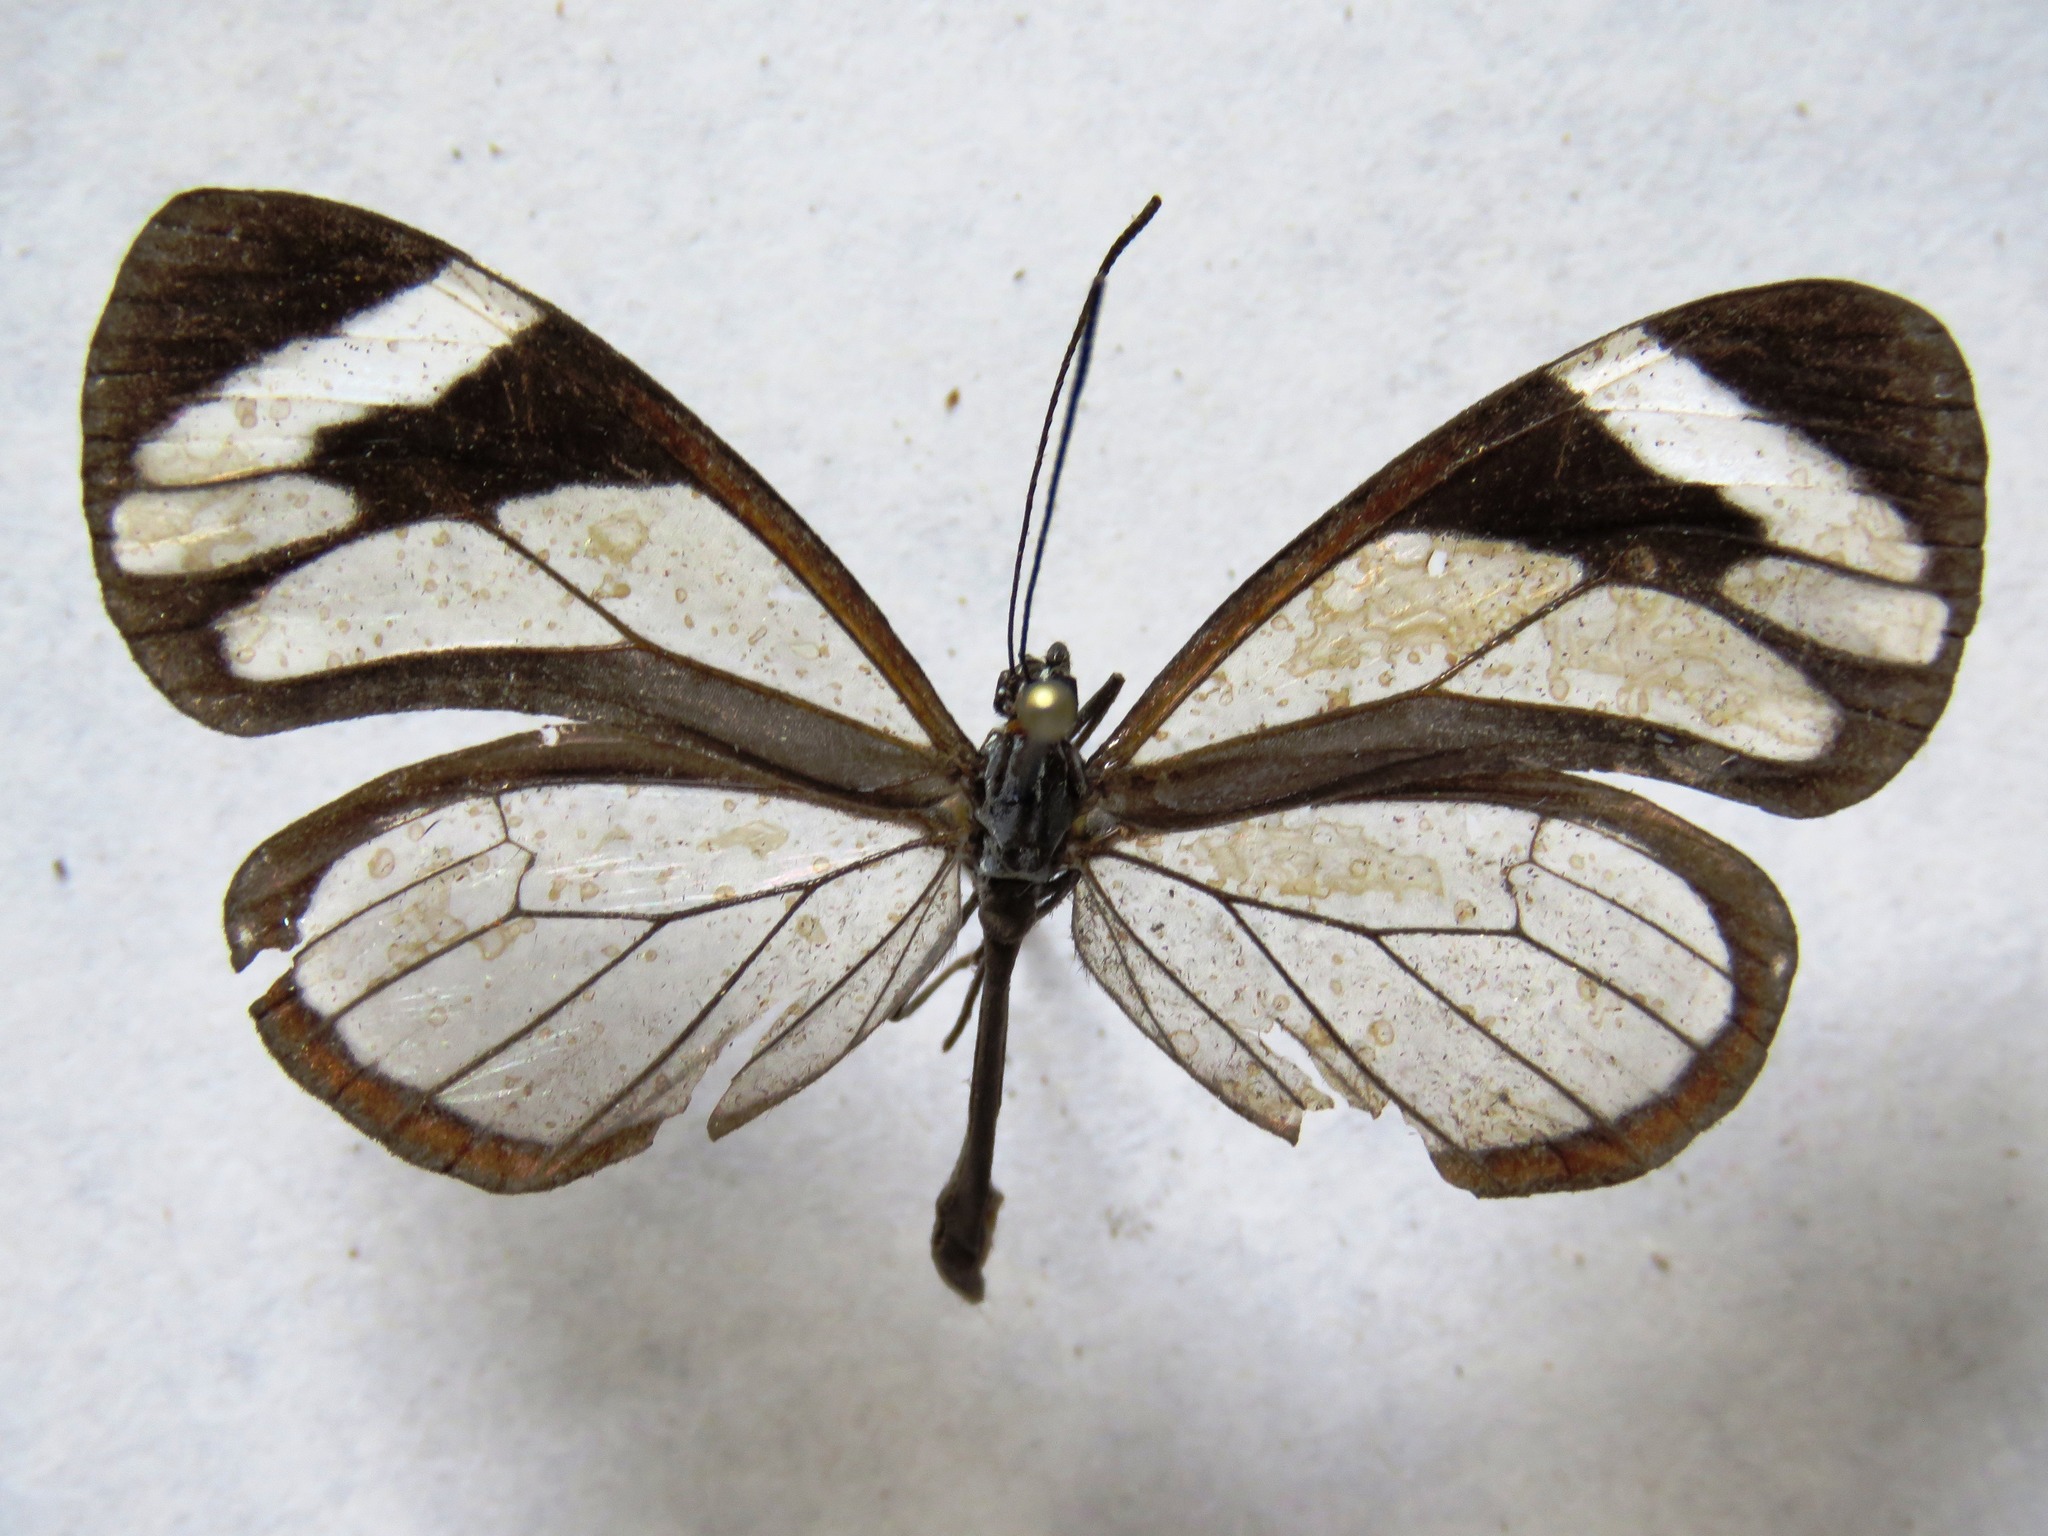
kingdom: Animalia
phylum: Arthropoda
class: Insecta
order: Lepidoptera
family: Nymphalidae
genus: Ithomia
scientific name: Ithomia patilla
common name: Patilla clearwing
